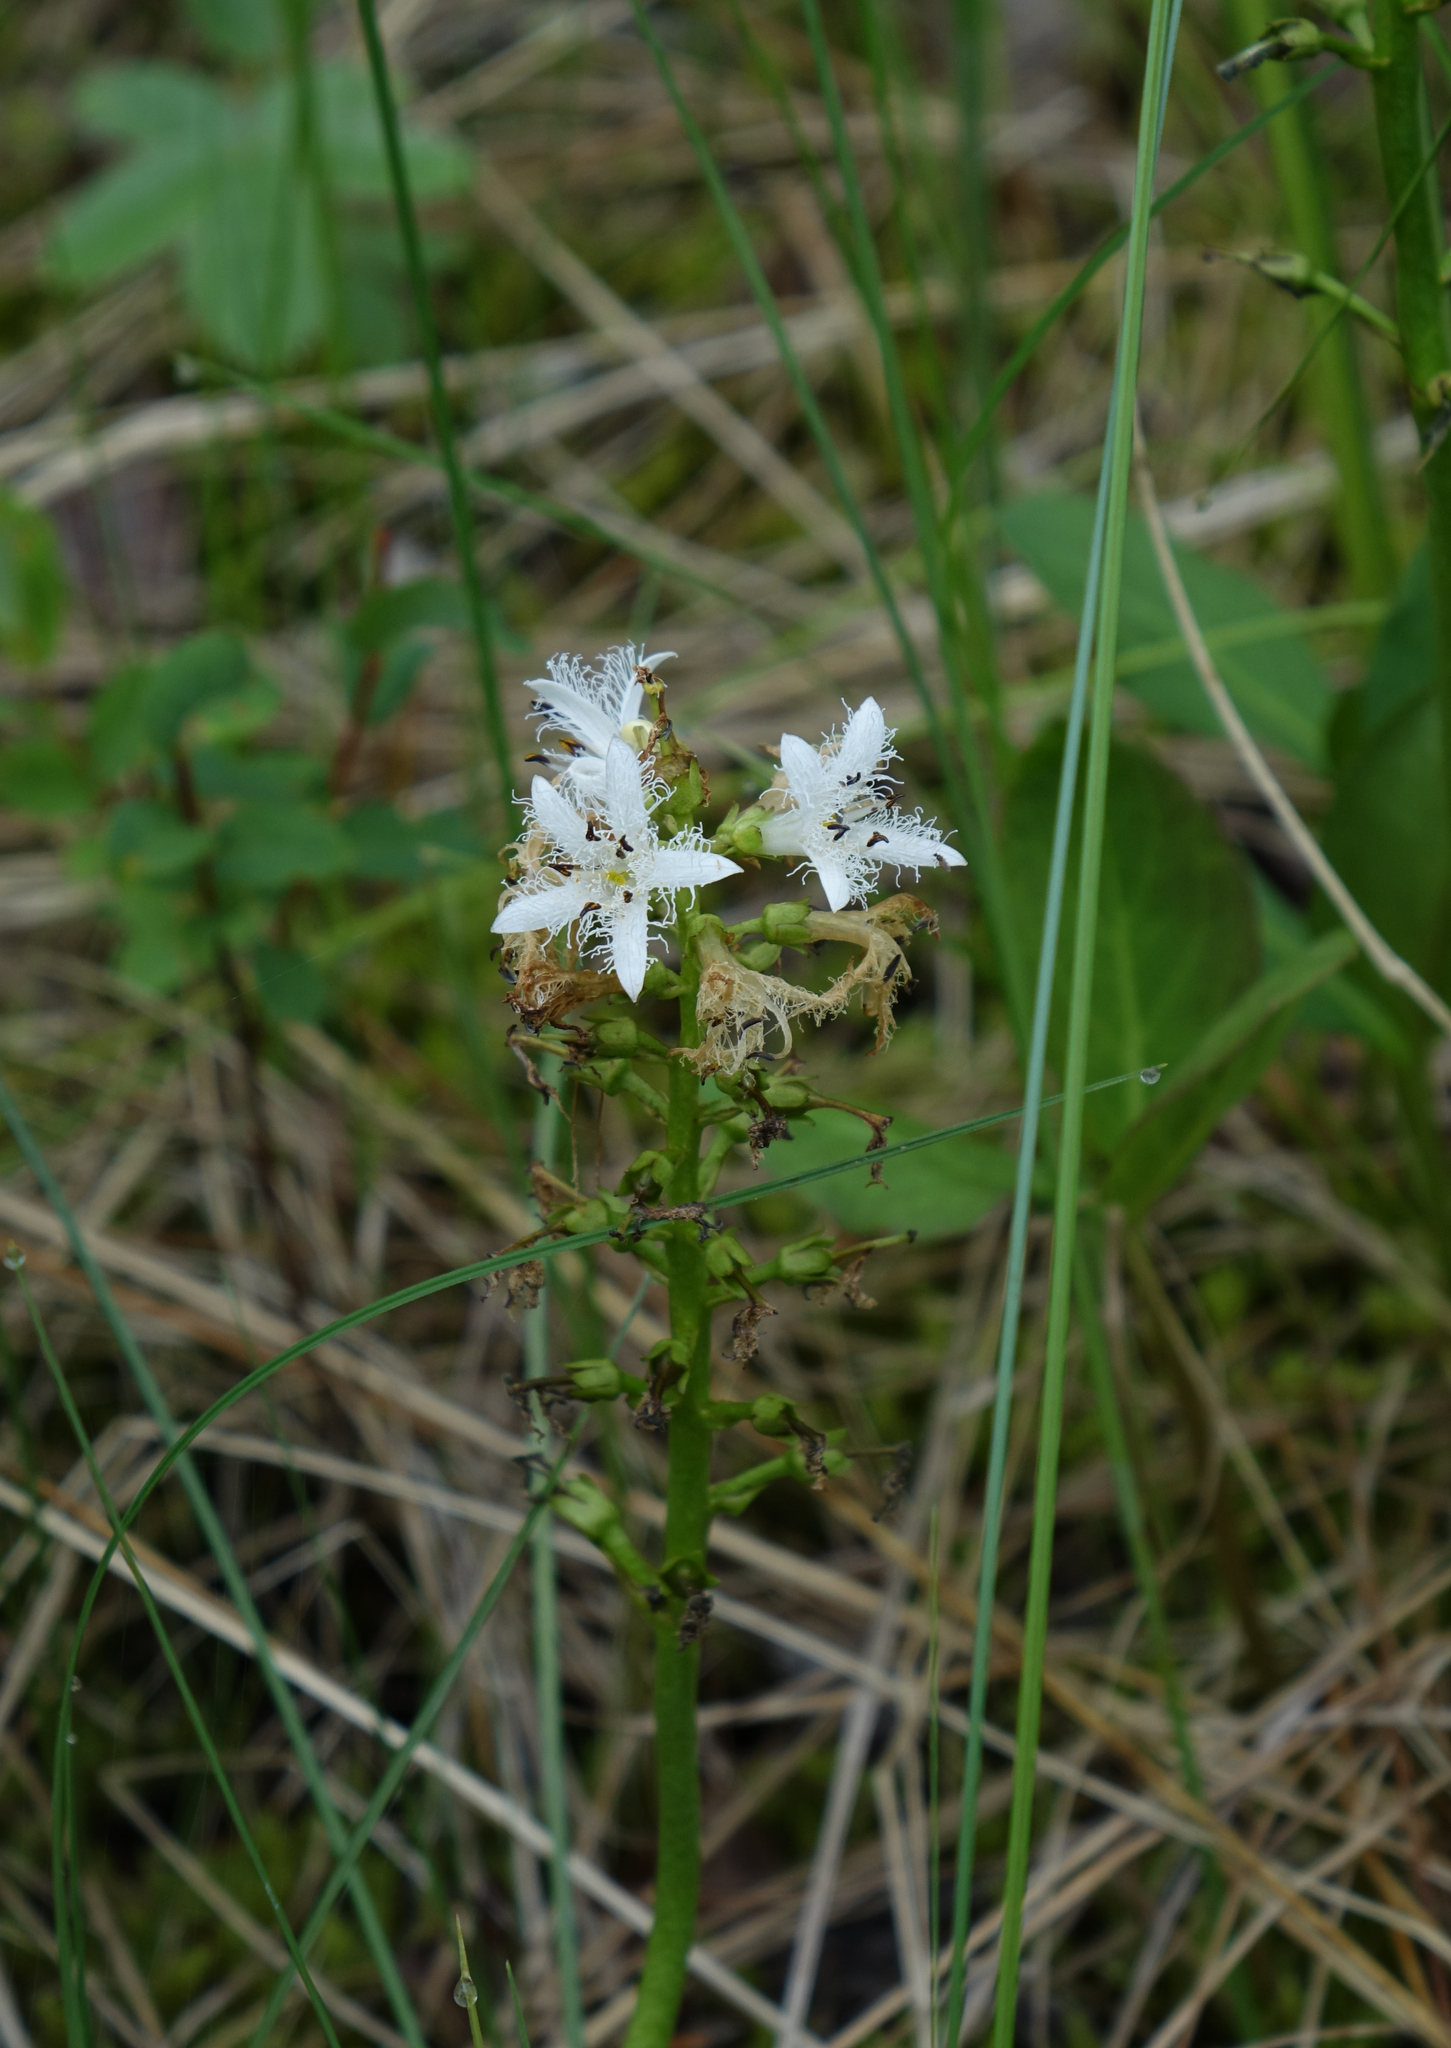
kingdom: Plantae
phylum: Tracheophyta
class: Magnoliopsida
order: Asterales
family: Menyanthaceae
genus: Menyanthes
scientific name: Menyanthes trifoliata
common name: Bogbean
